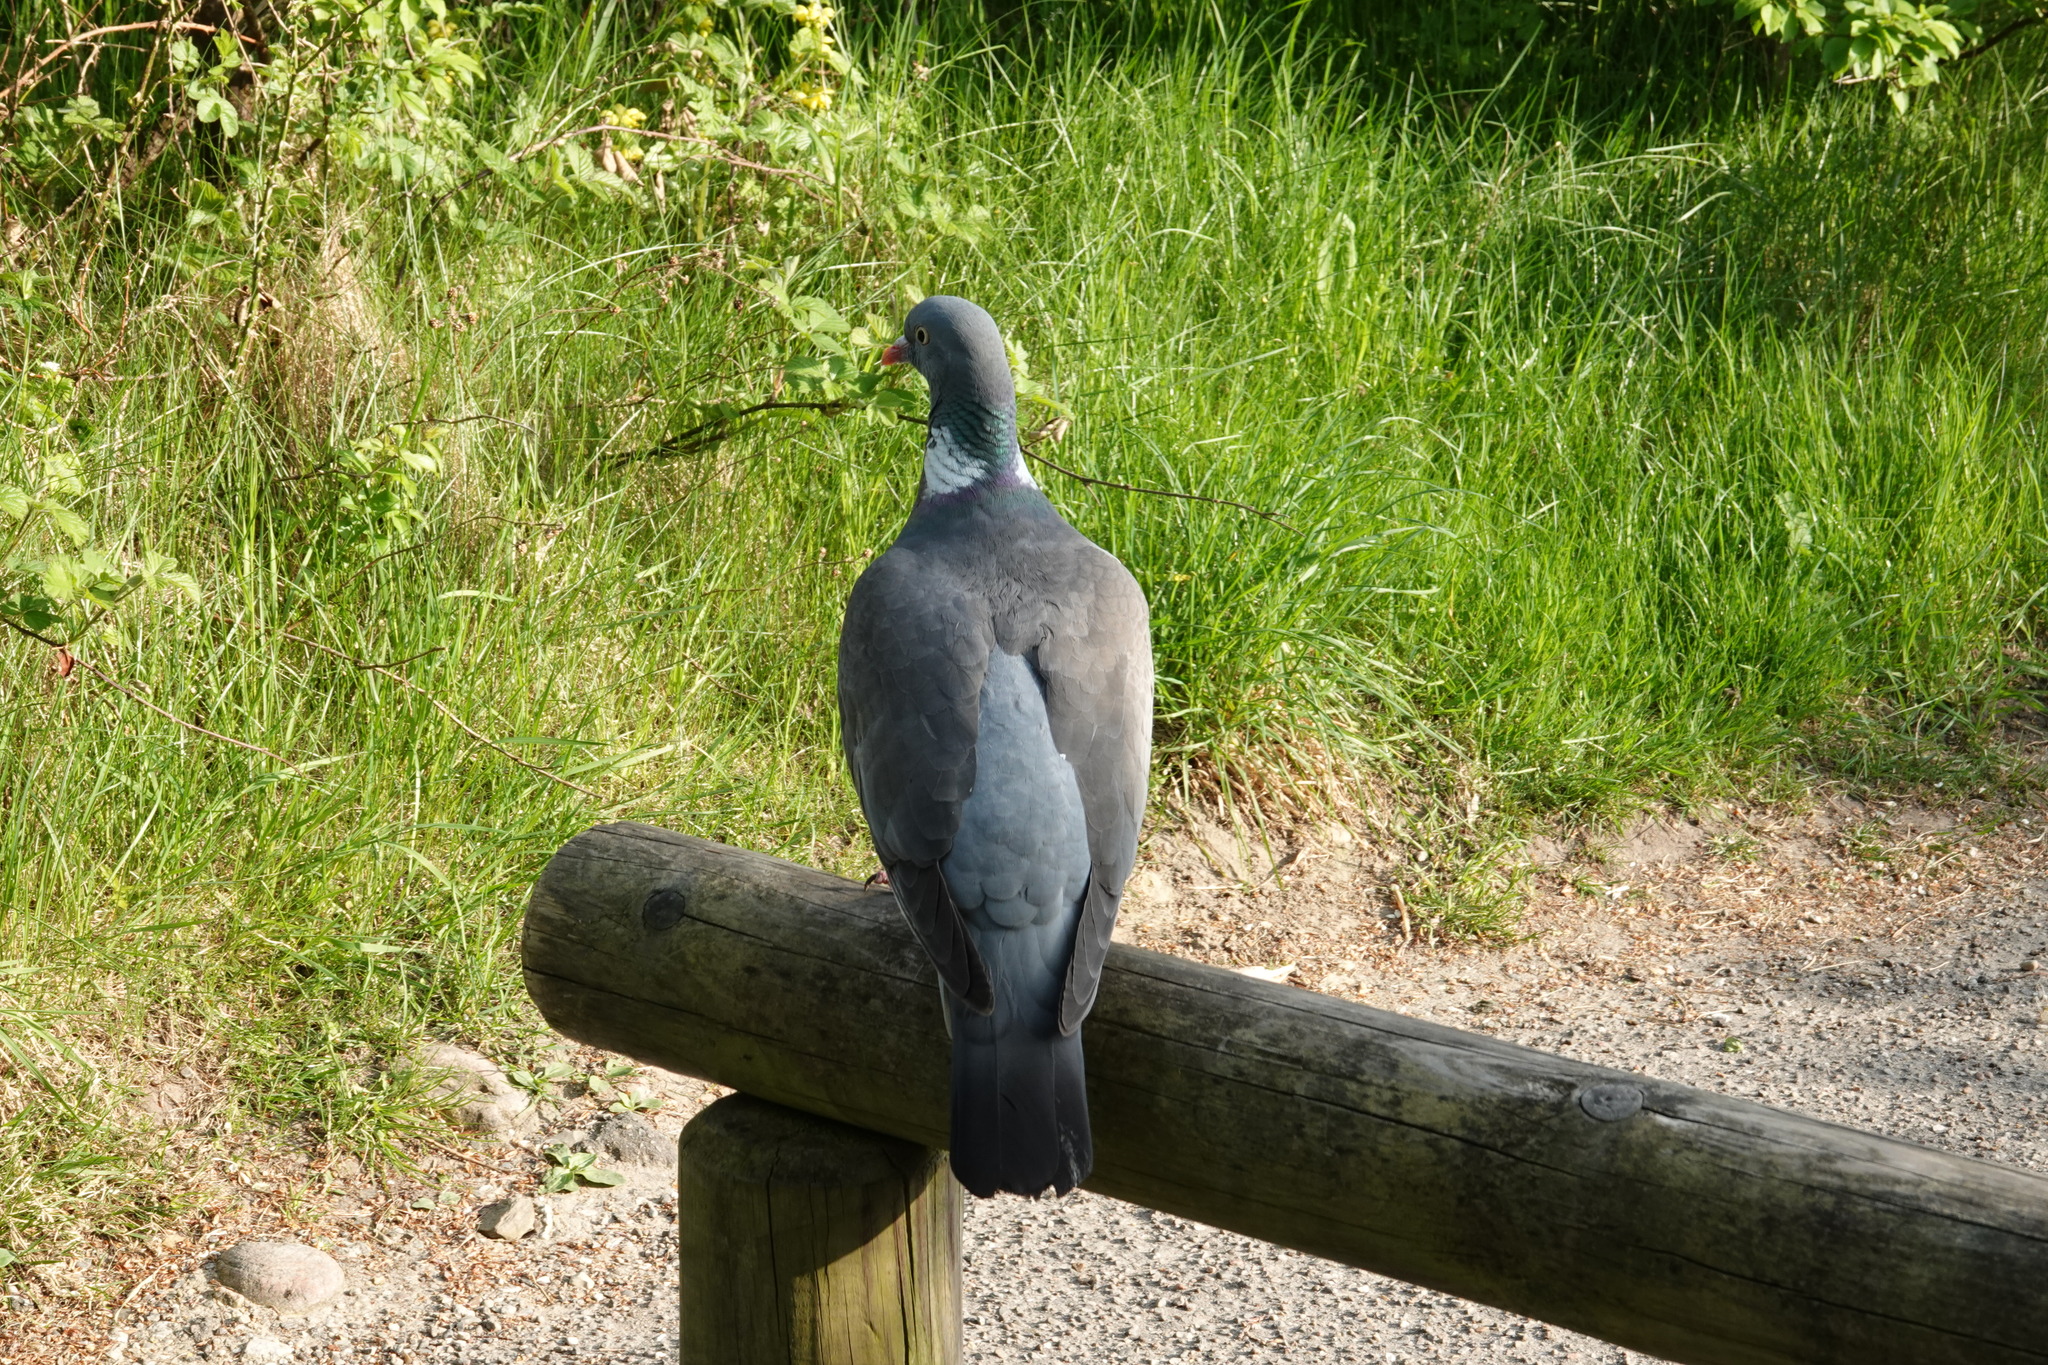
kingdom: Animalia
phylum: Chordata
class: Aves
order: Columbiformes
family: Columbidae
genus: Columba
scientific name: Columba palumbus
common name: Common wood pigeon
